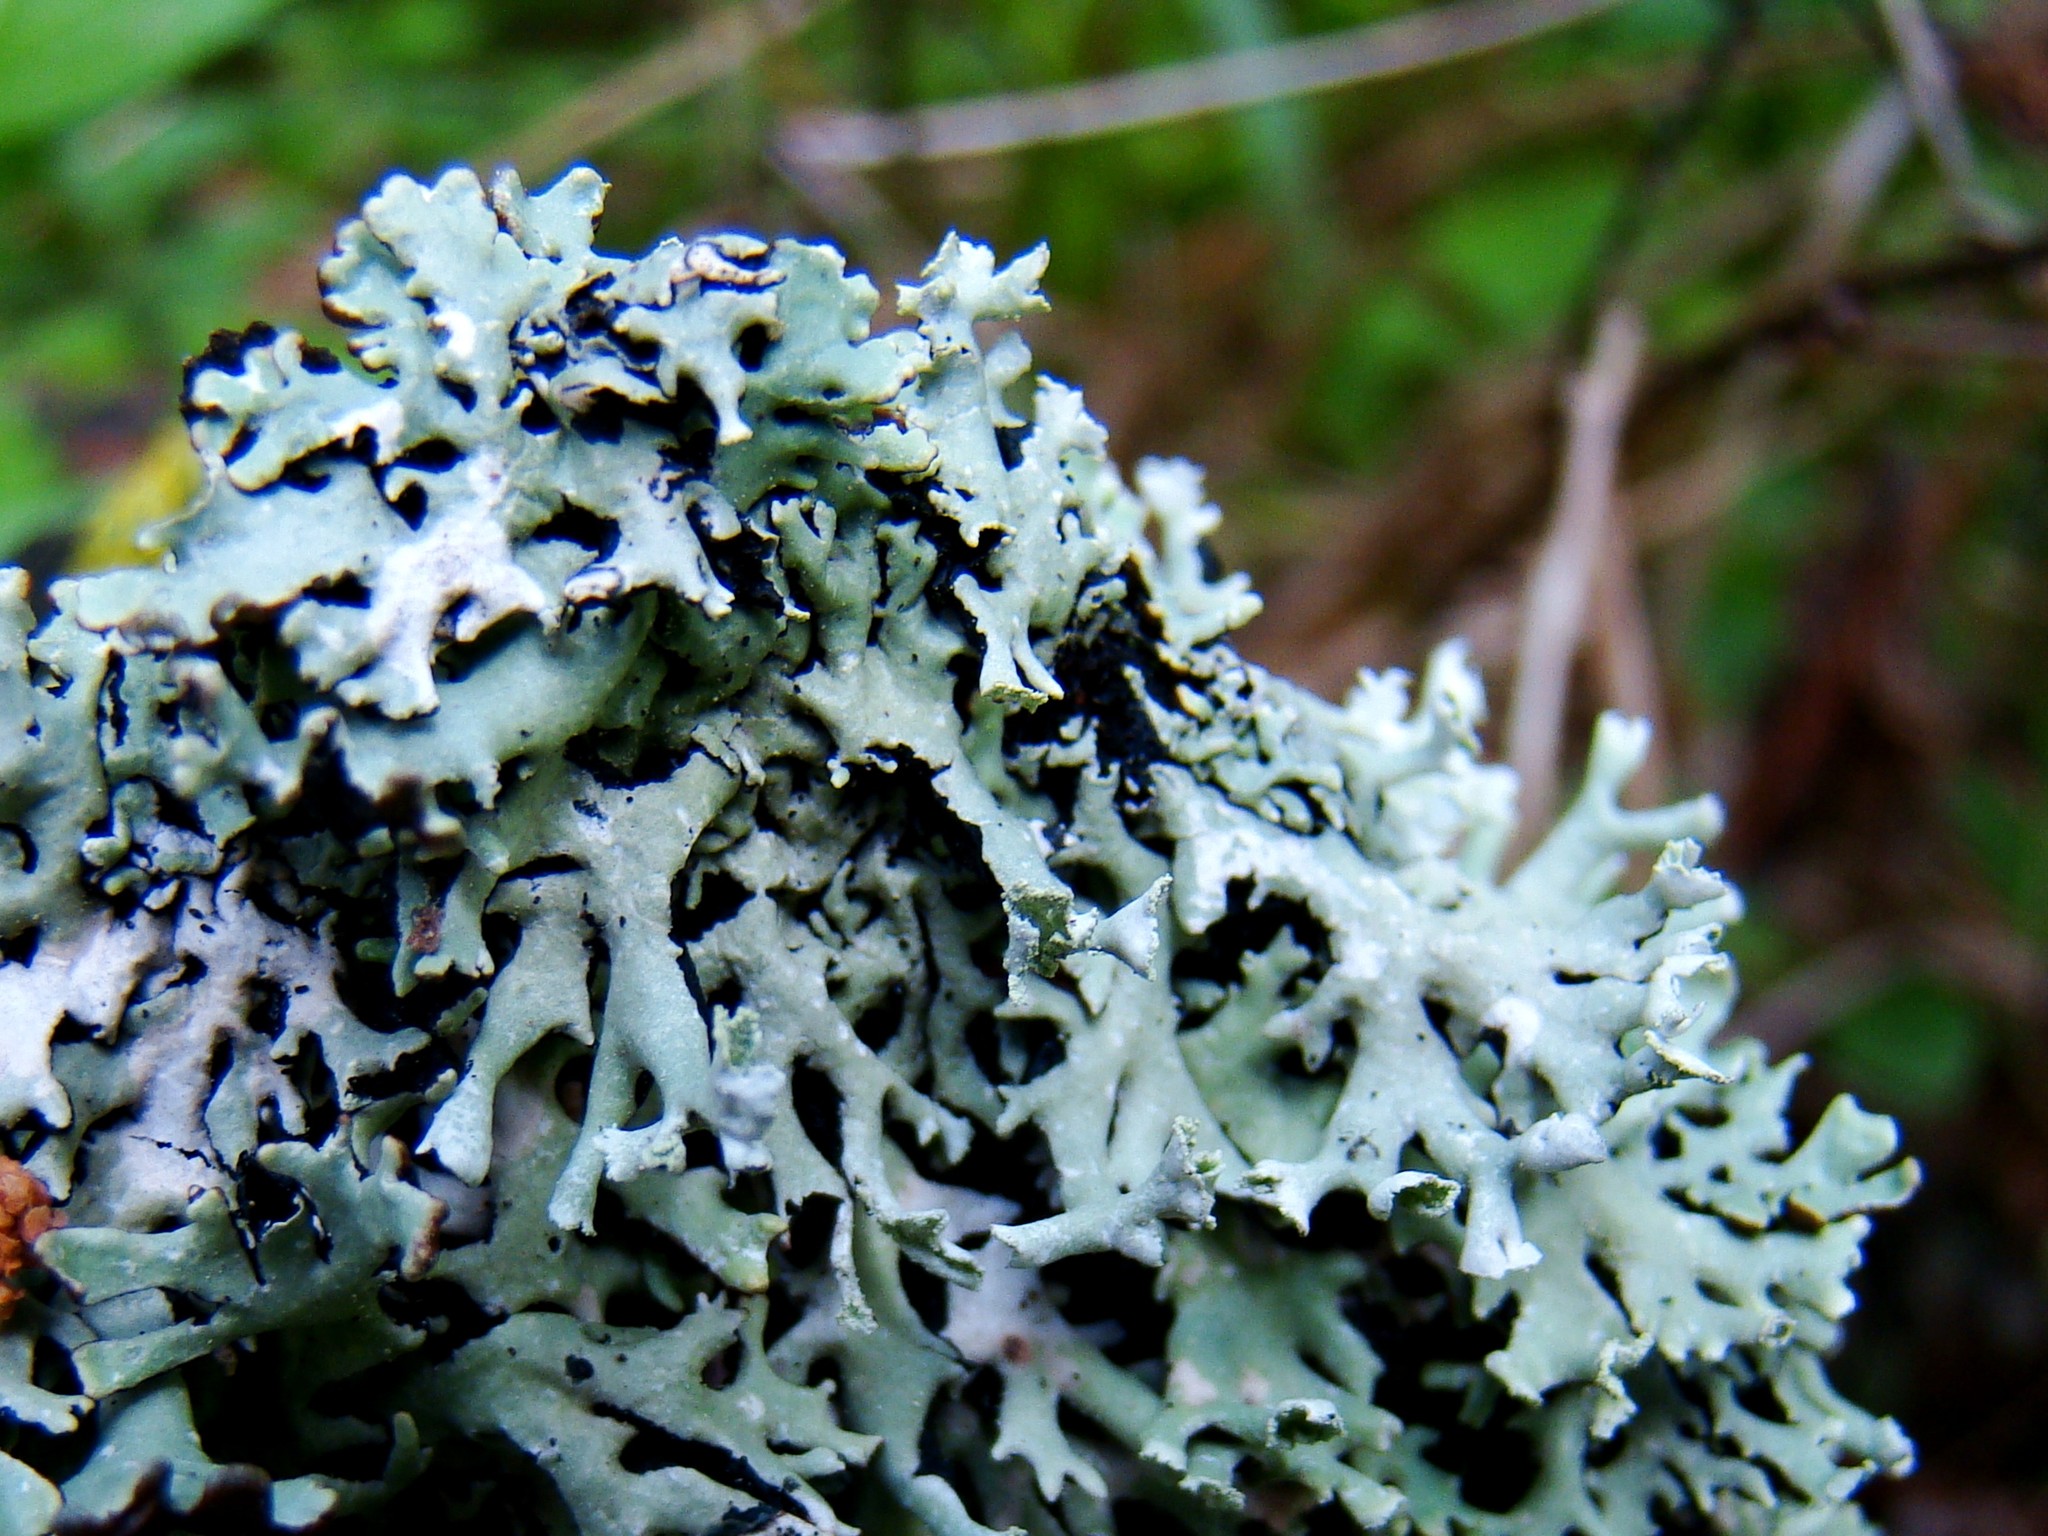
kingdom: Fungi
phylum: Ascomycota
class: Lecanoromycetes
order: Lecanorales
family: Parmeliaceae
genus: Hypogymnia
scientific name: Hypogymnia physodes
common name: Dark crottle
